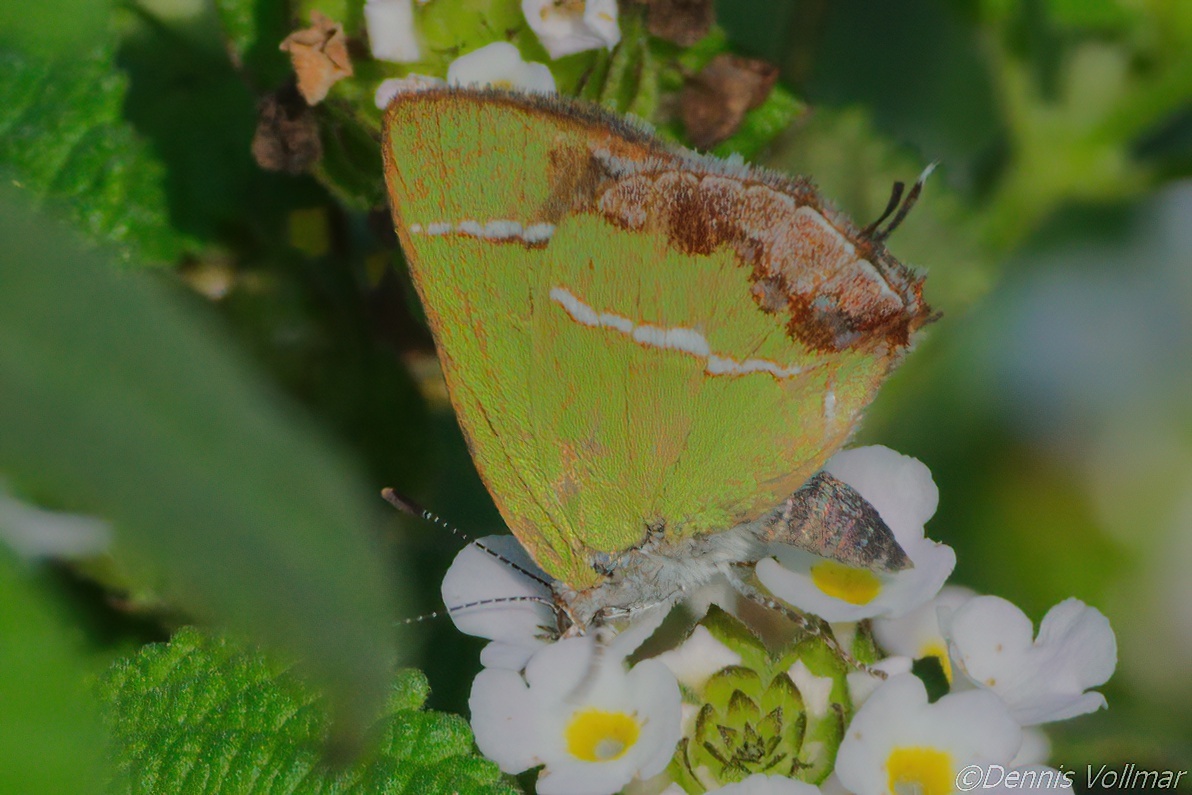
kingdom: Animalia
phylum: Arthropoda
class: Insecta
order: Lepidoptera
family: Lycaenidae
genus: Chlorostrymon
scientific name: Chlorostrymon simaethis
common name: Silver-banded hairstreak
